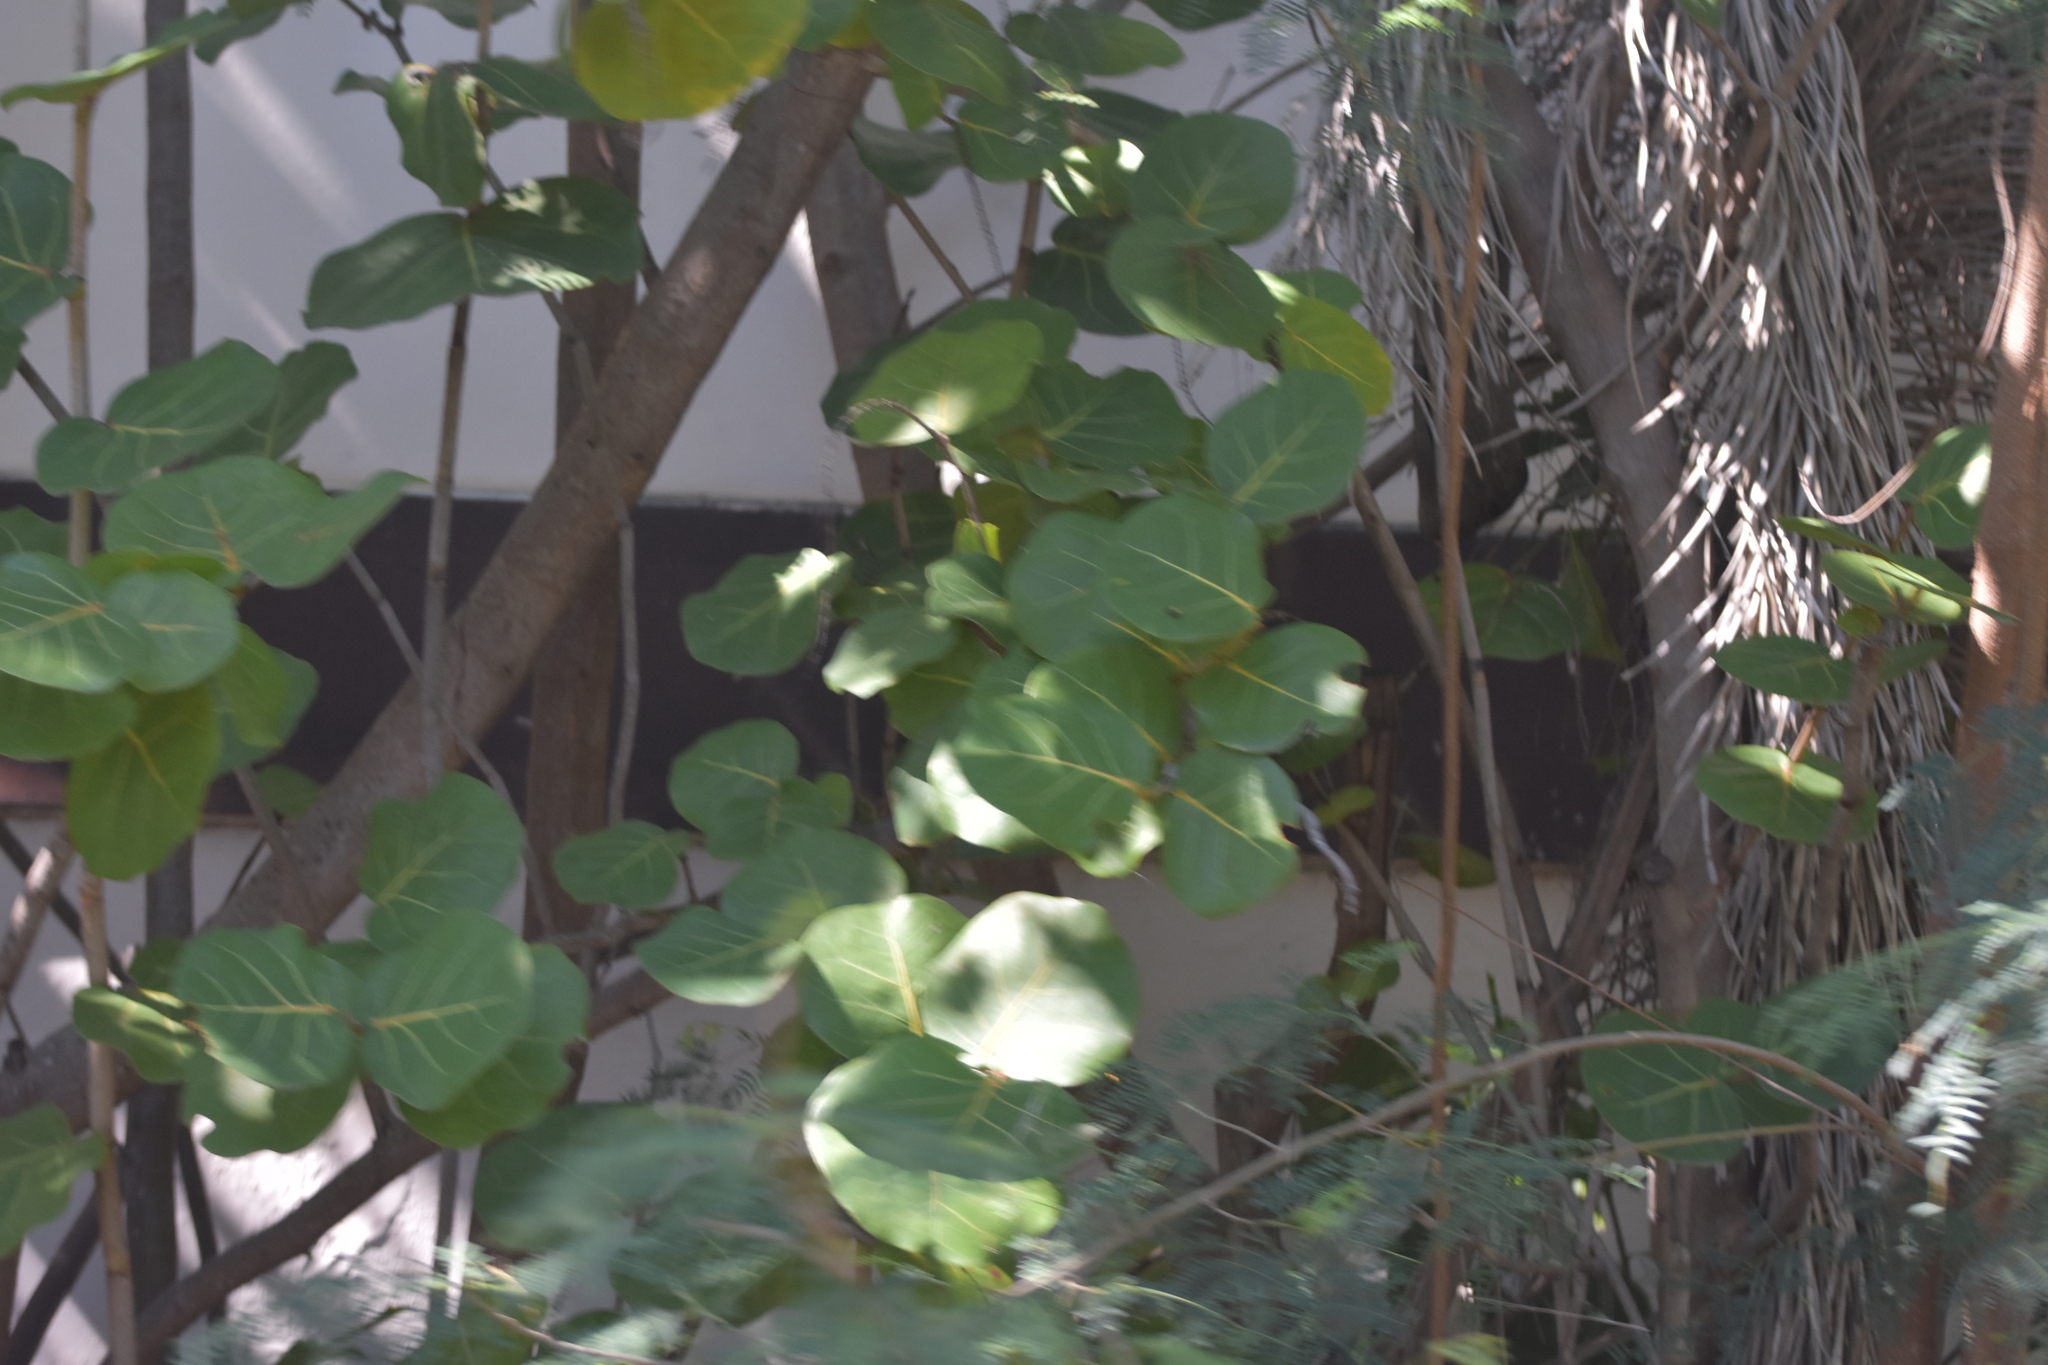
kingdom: Plantae
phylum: Tracheophyta
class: Magnoliopsida
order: Caryophyllales
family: Polygonaceae
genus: Coccoloba
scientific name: Coccoloba uvifera
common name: Seagrape
